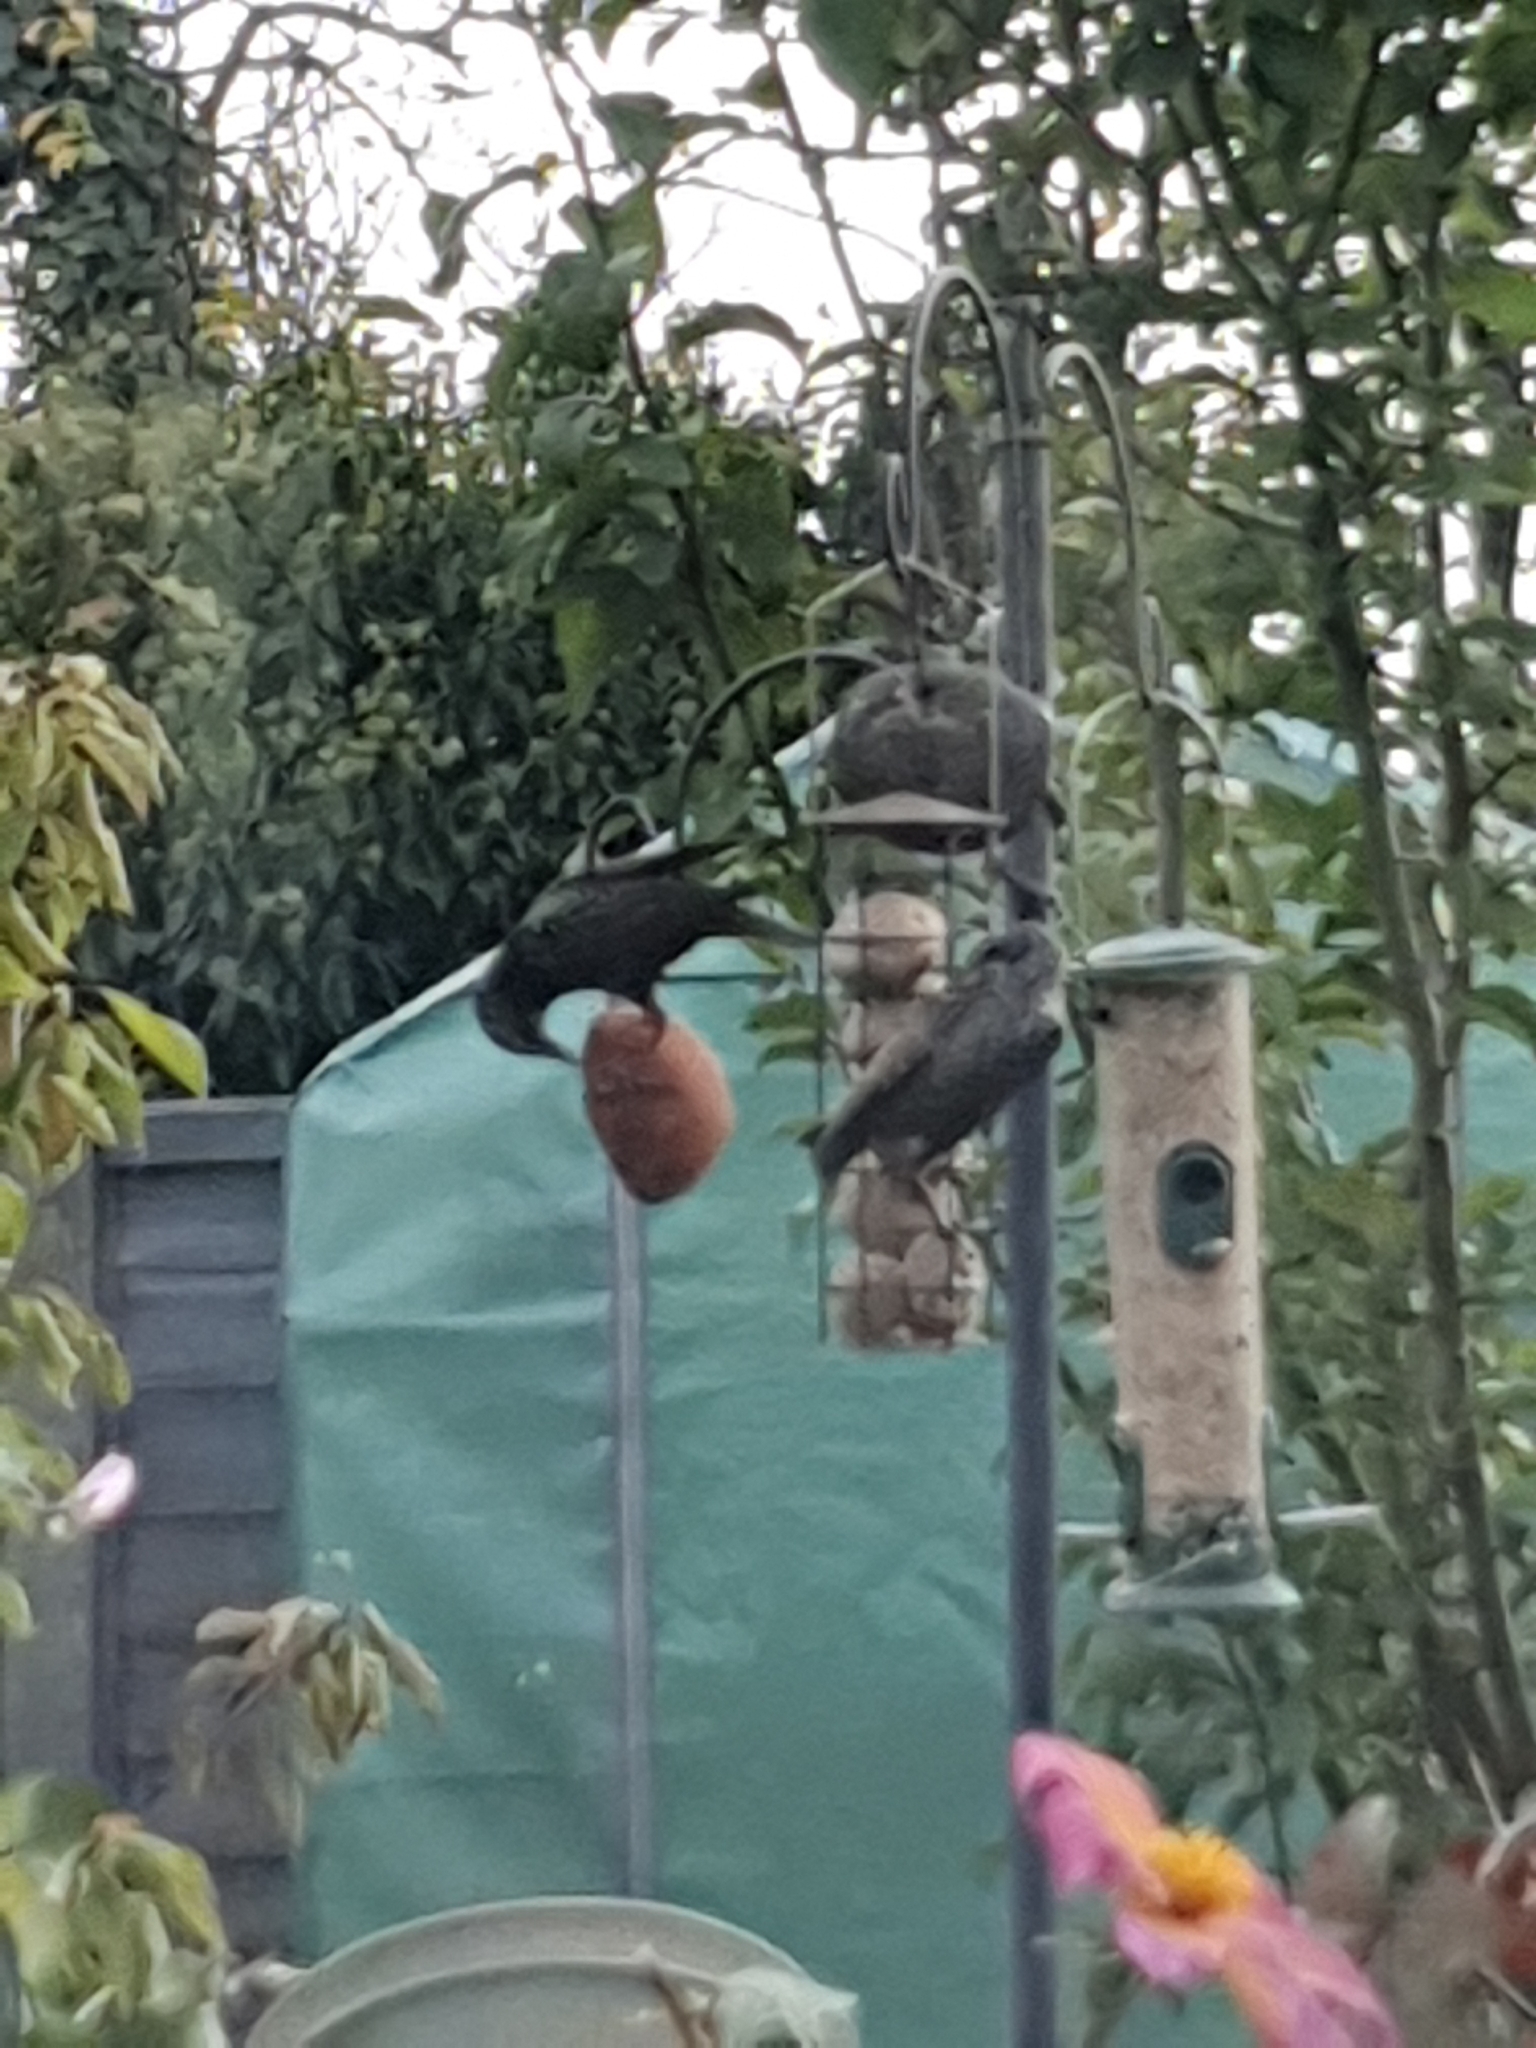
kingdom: Animalia
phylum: Chordata
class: Aves
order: Passeriformes
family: Sturnidae
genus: Sturnus
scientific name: Sturnus vulgaris
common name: Common starling
